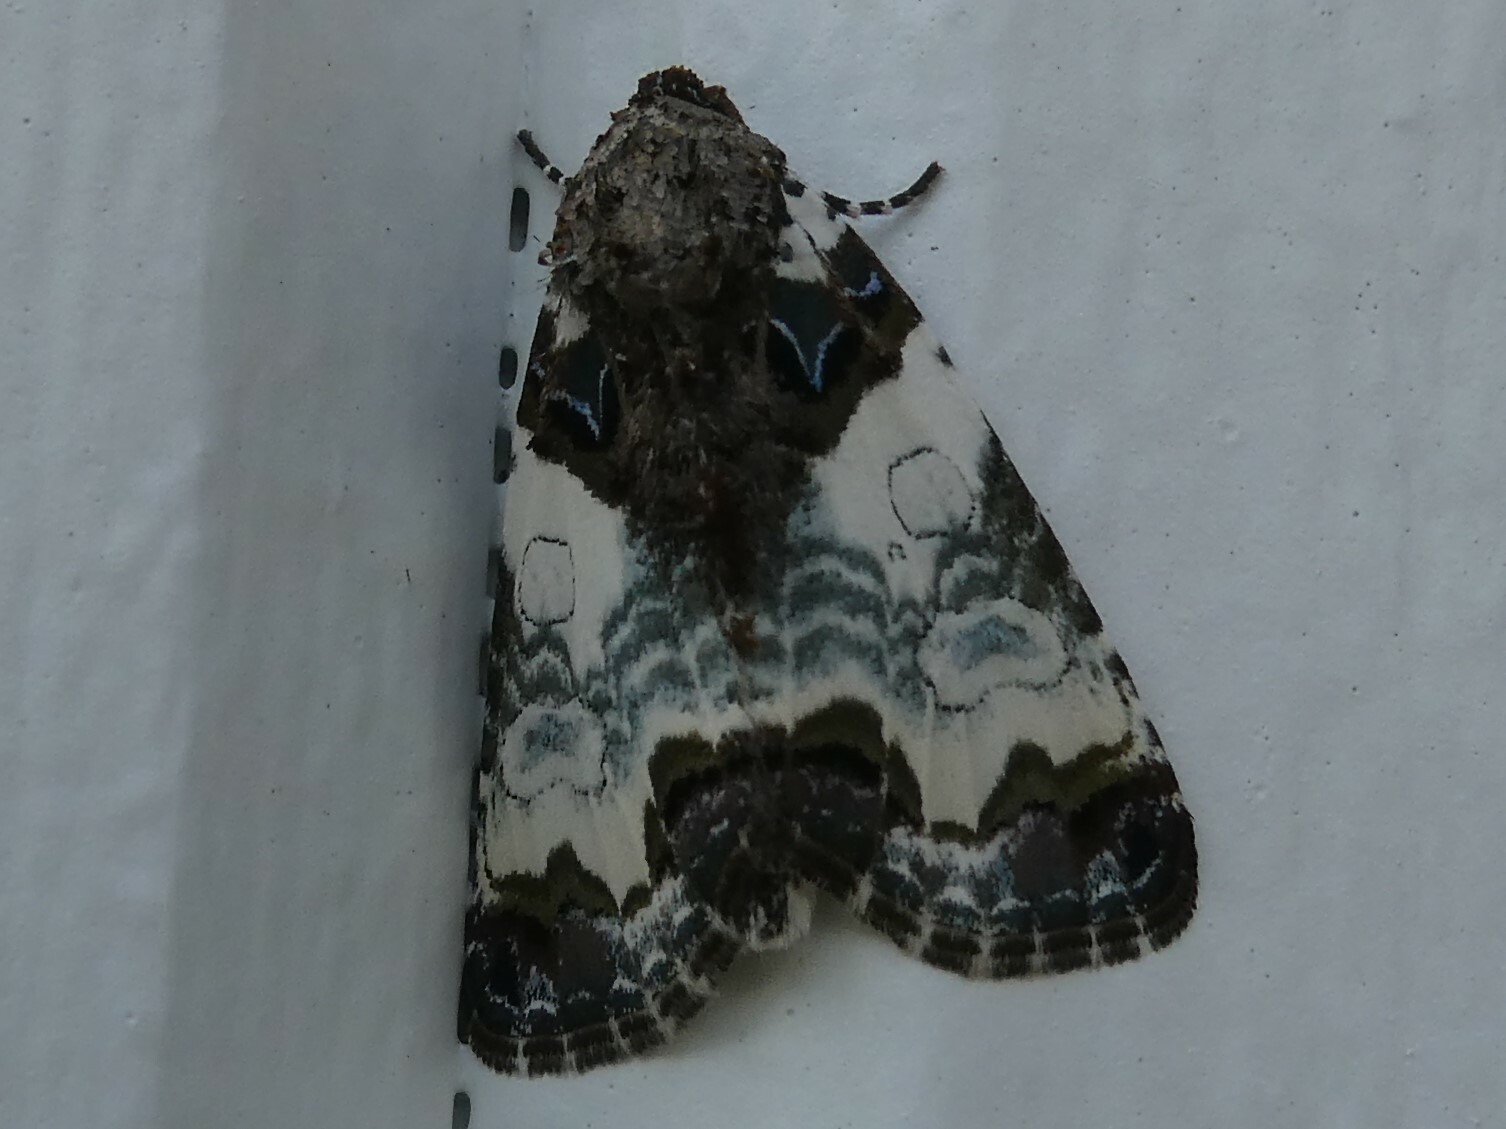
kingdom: Animalia
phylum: Arthropoda
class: Insecta
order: Lepidoptera
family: Noctuidae
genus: Cerma
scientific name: Cerma cerintha
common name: Tufted bird-dropping moth
